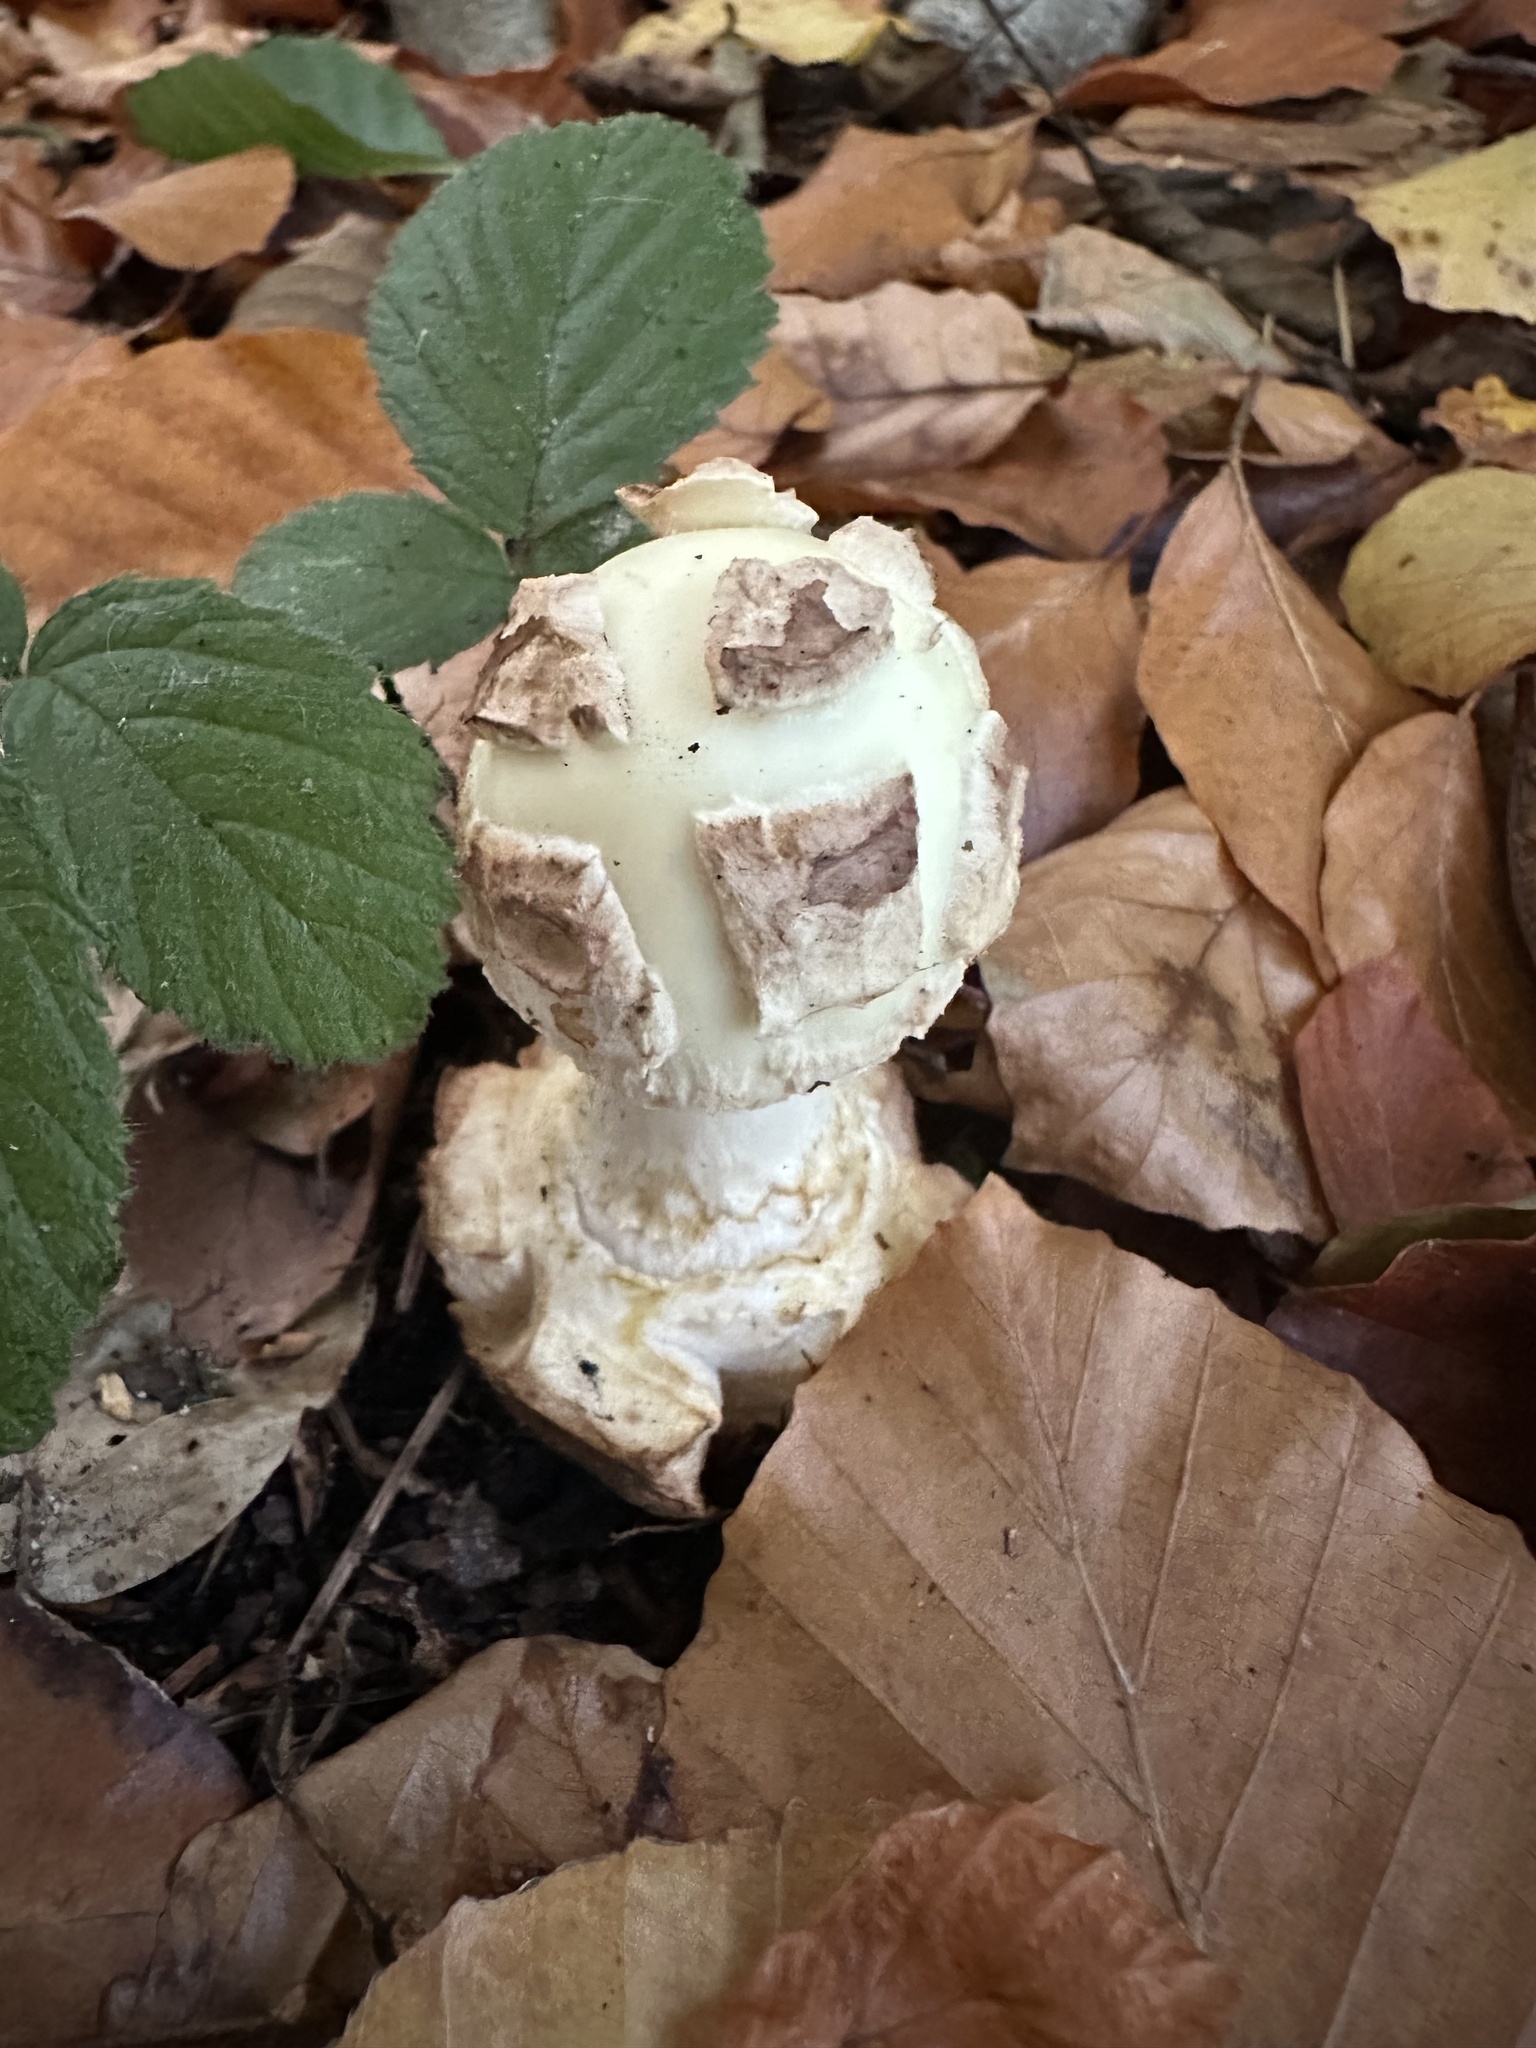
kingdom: Fungi
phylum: Basidiomycota
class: Agaricomycetes
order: Agaricales
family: Amanitaceae
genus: Amanita
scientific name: Amanita citrina
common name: False death-cap
